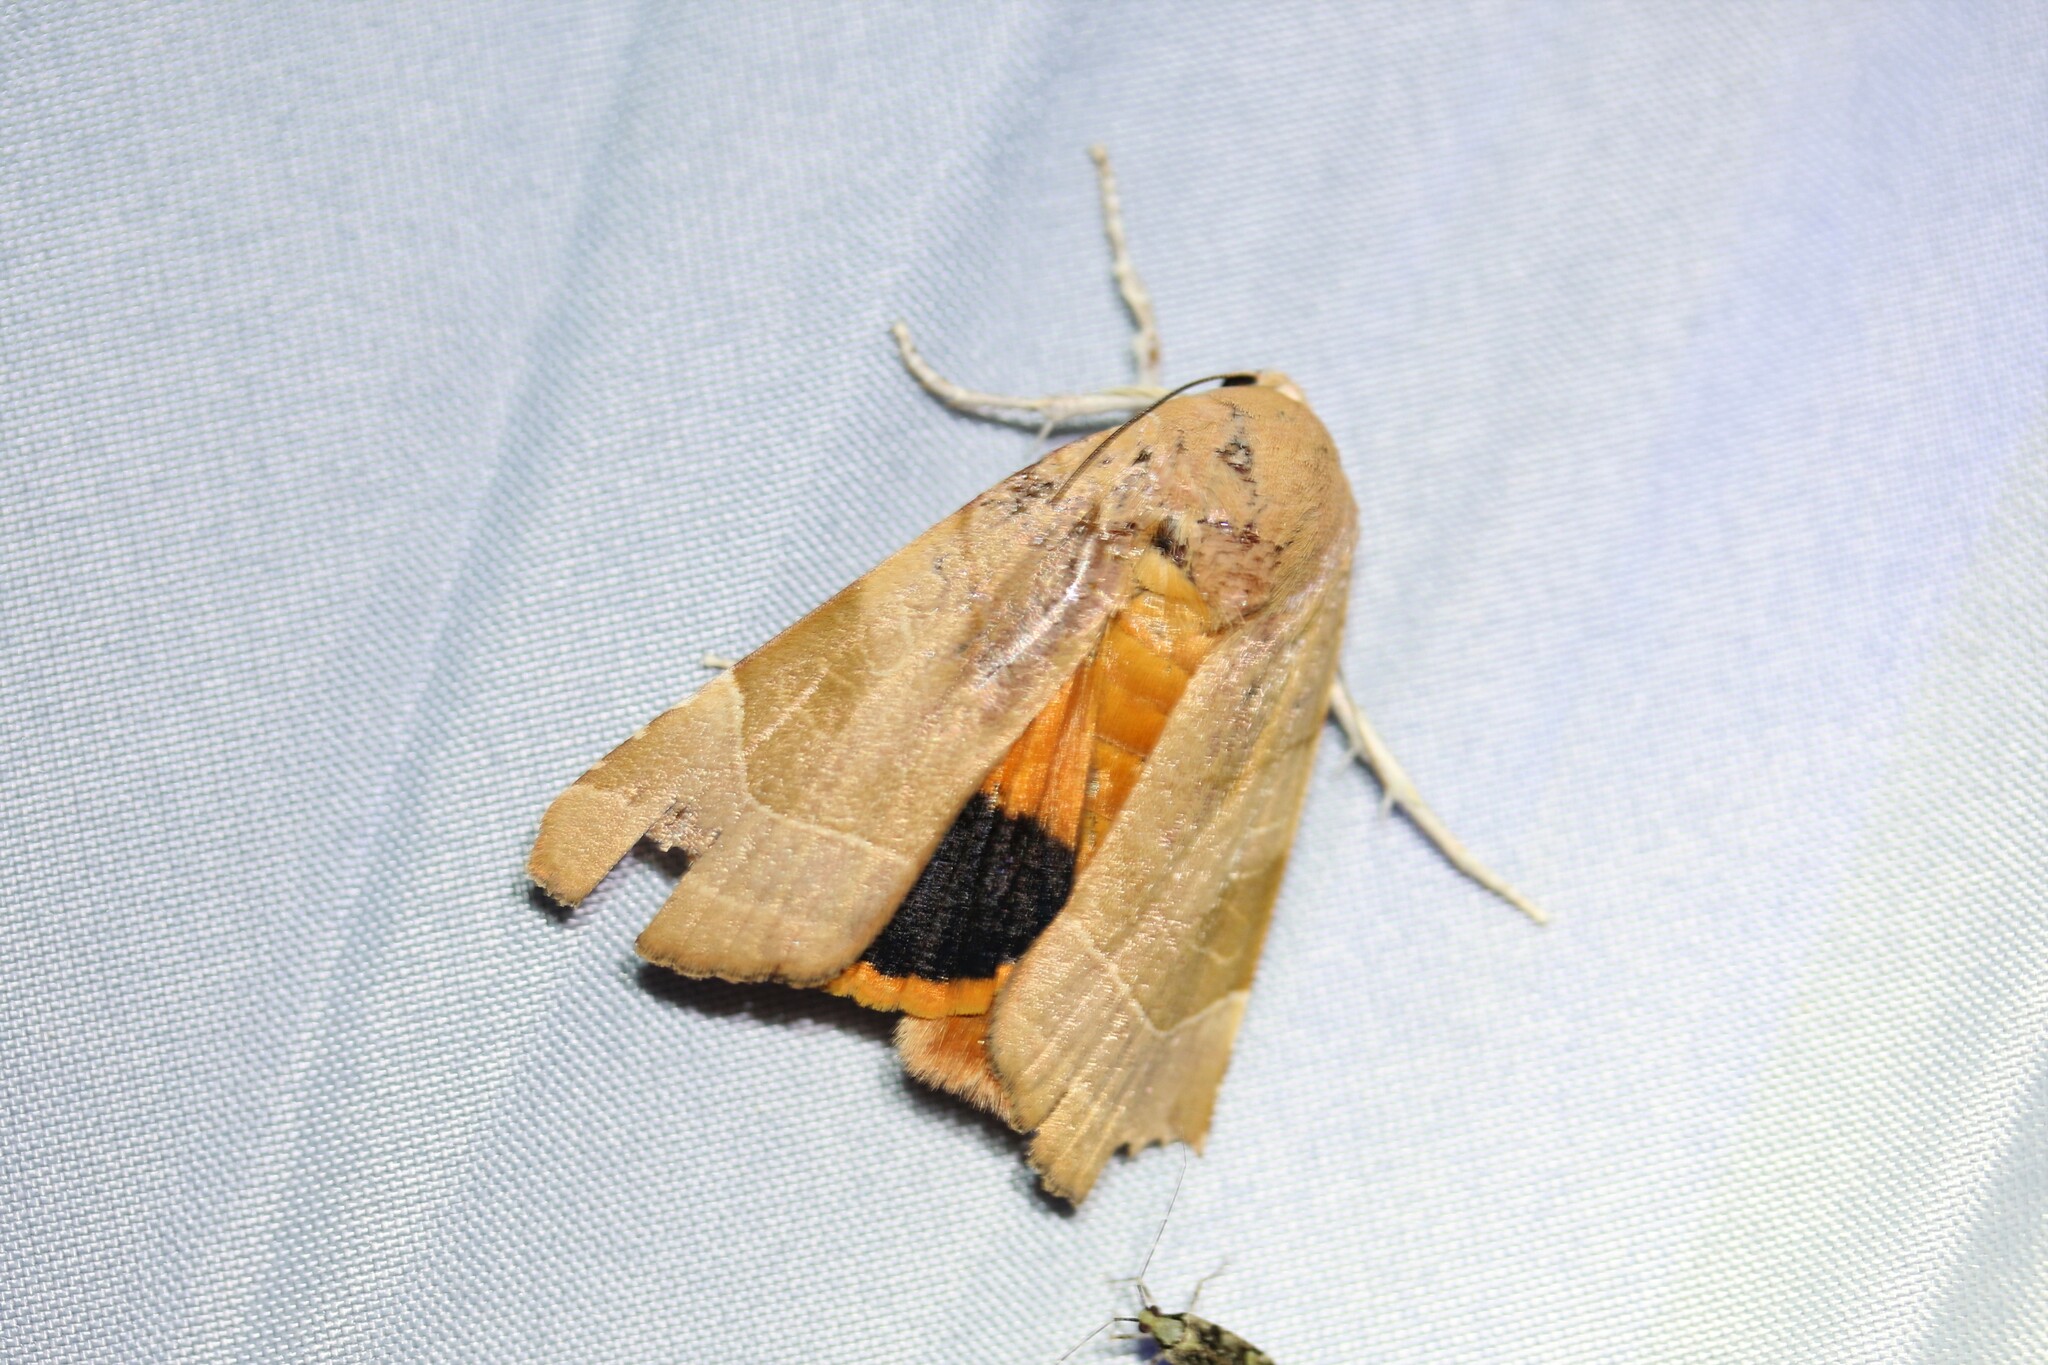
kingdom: Animalia
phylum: Arthropoda
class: Insecta
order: Lepidoptera
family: Noctuidae
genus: Noctua
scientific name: Noctua fimbriata
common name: Broad-bordered yellow underwing
